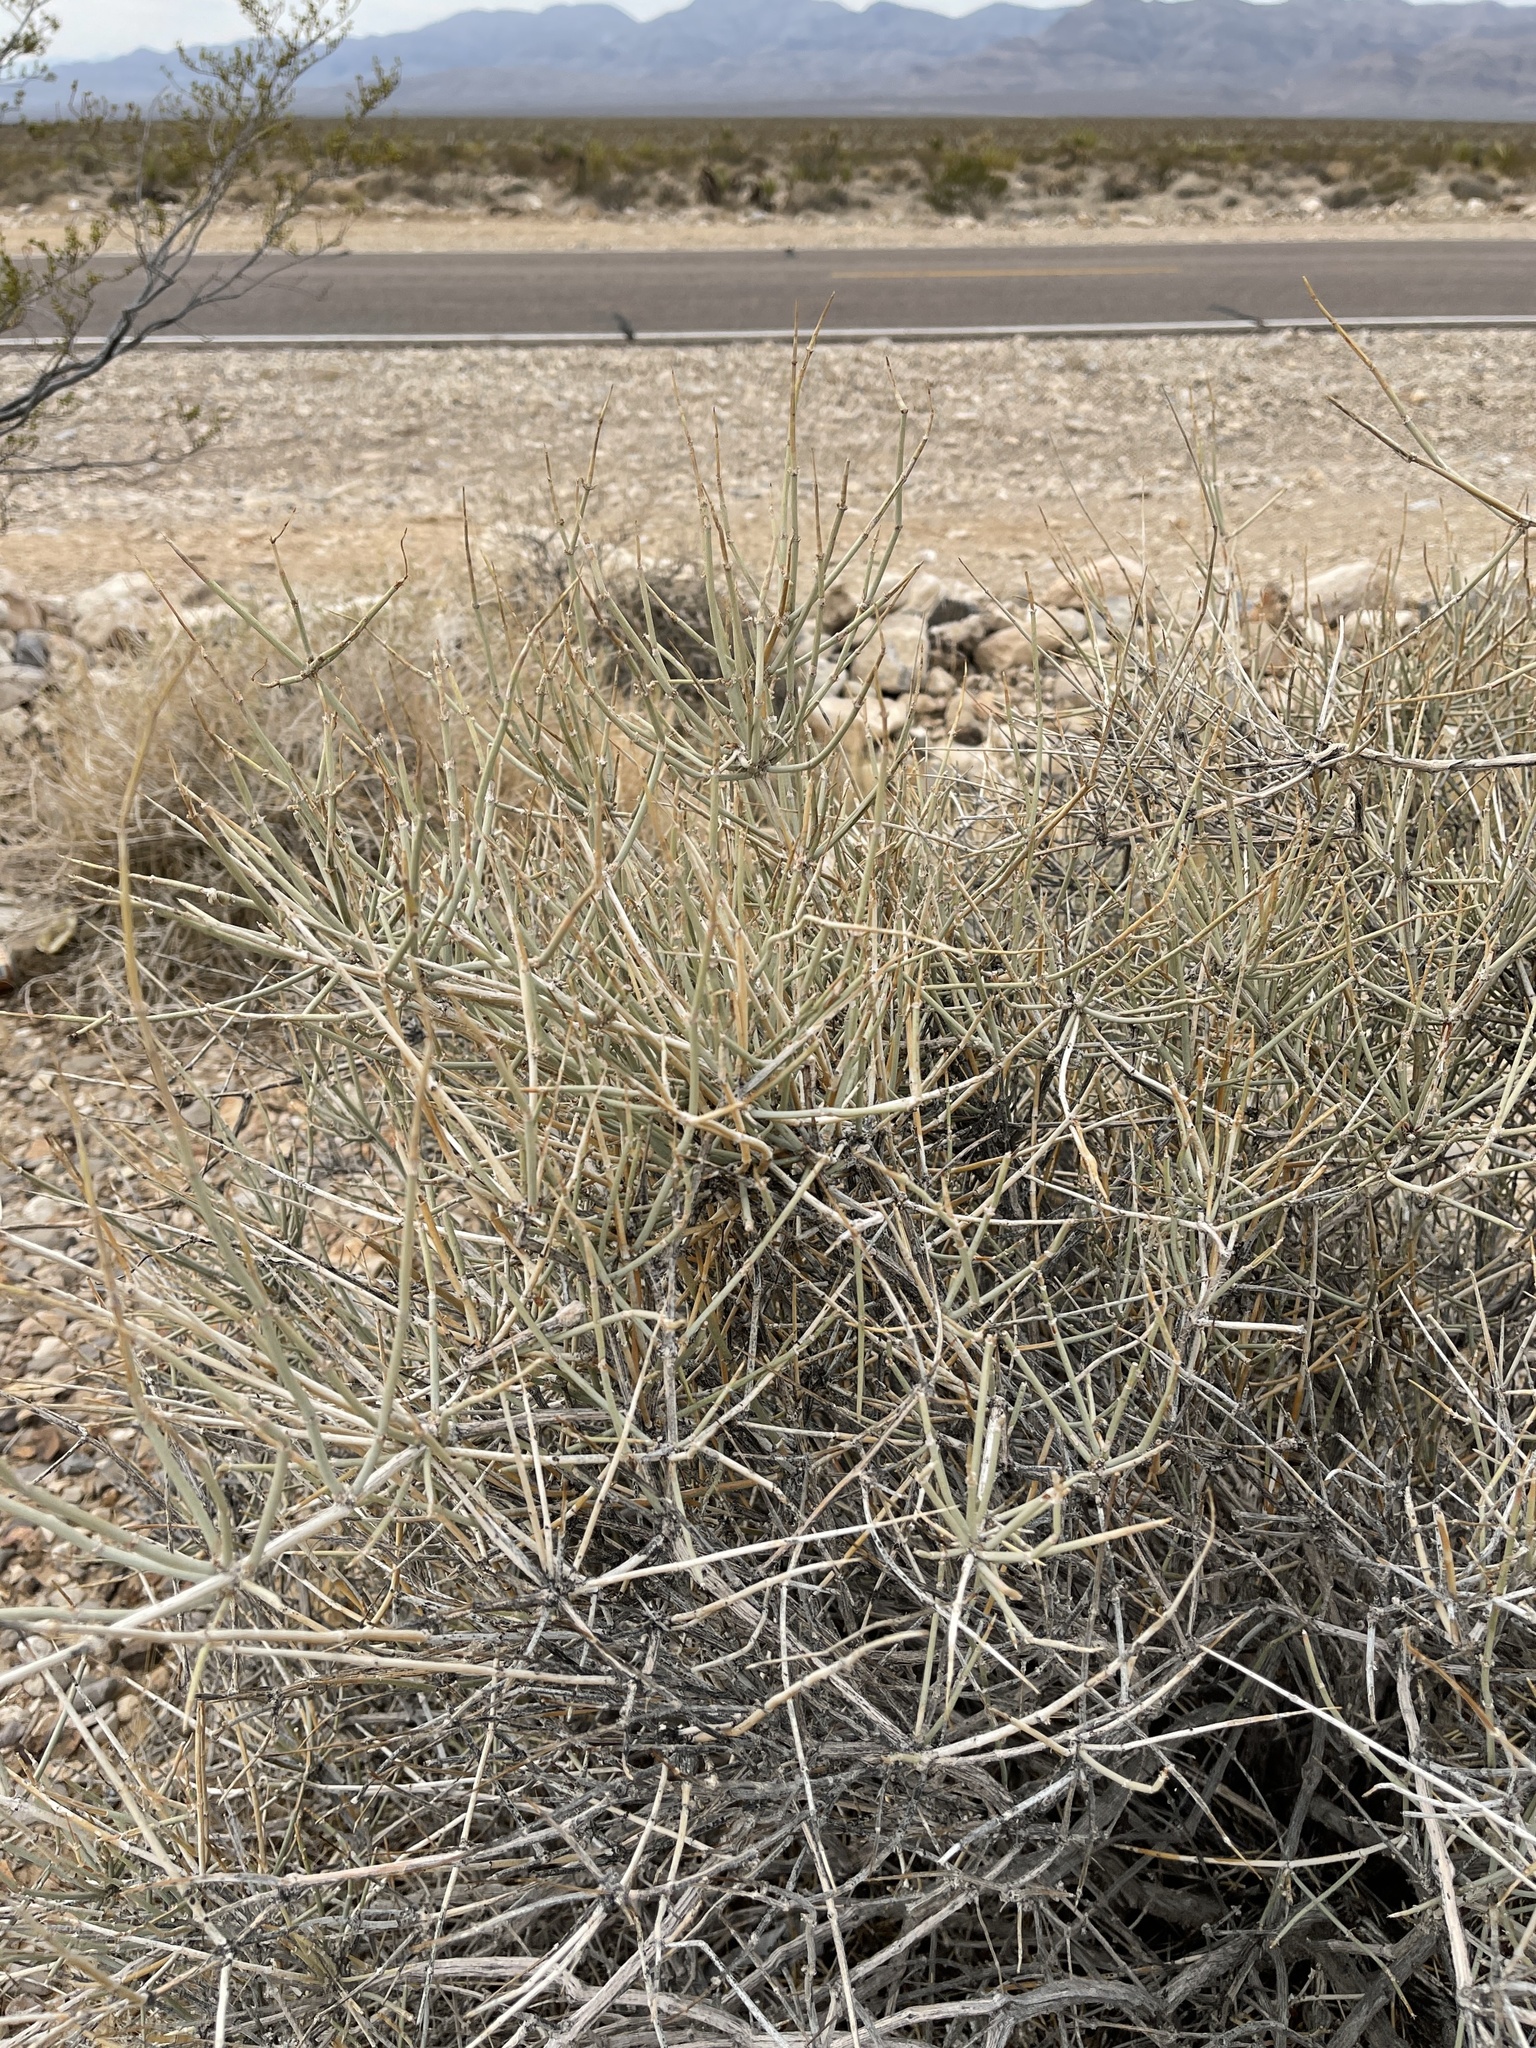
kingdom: Plantae
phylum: Tracheophyta
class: Gnetopsida
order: Ephedrales
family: Ephedraceae
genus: Ephedra
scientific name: Ephedra nevadensis
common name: Gray ephedra
